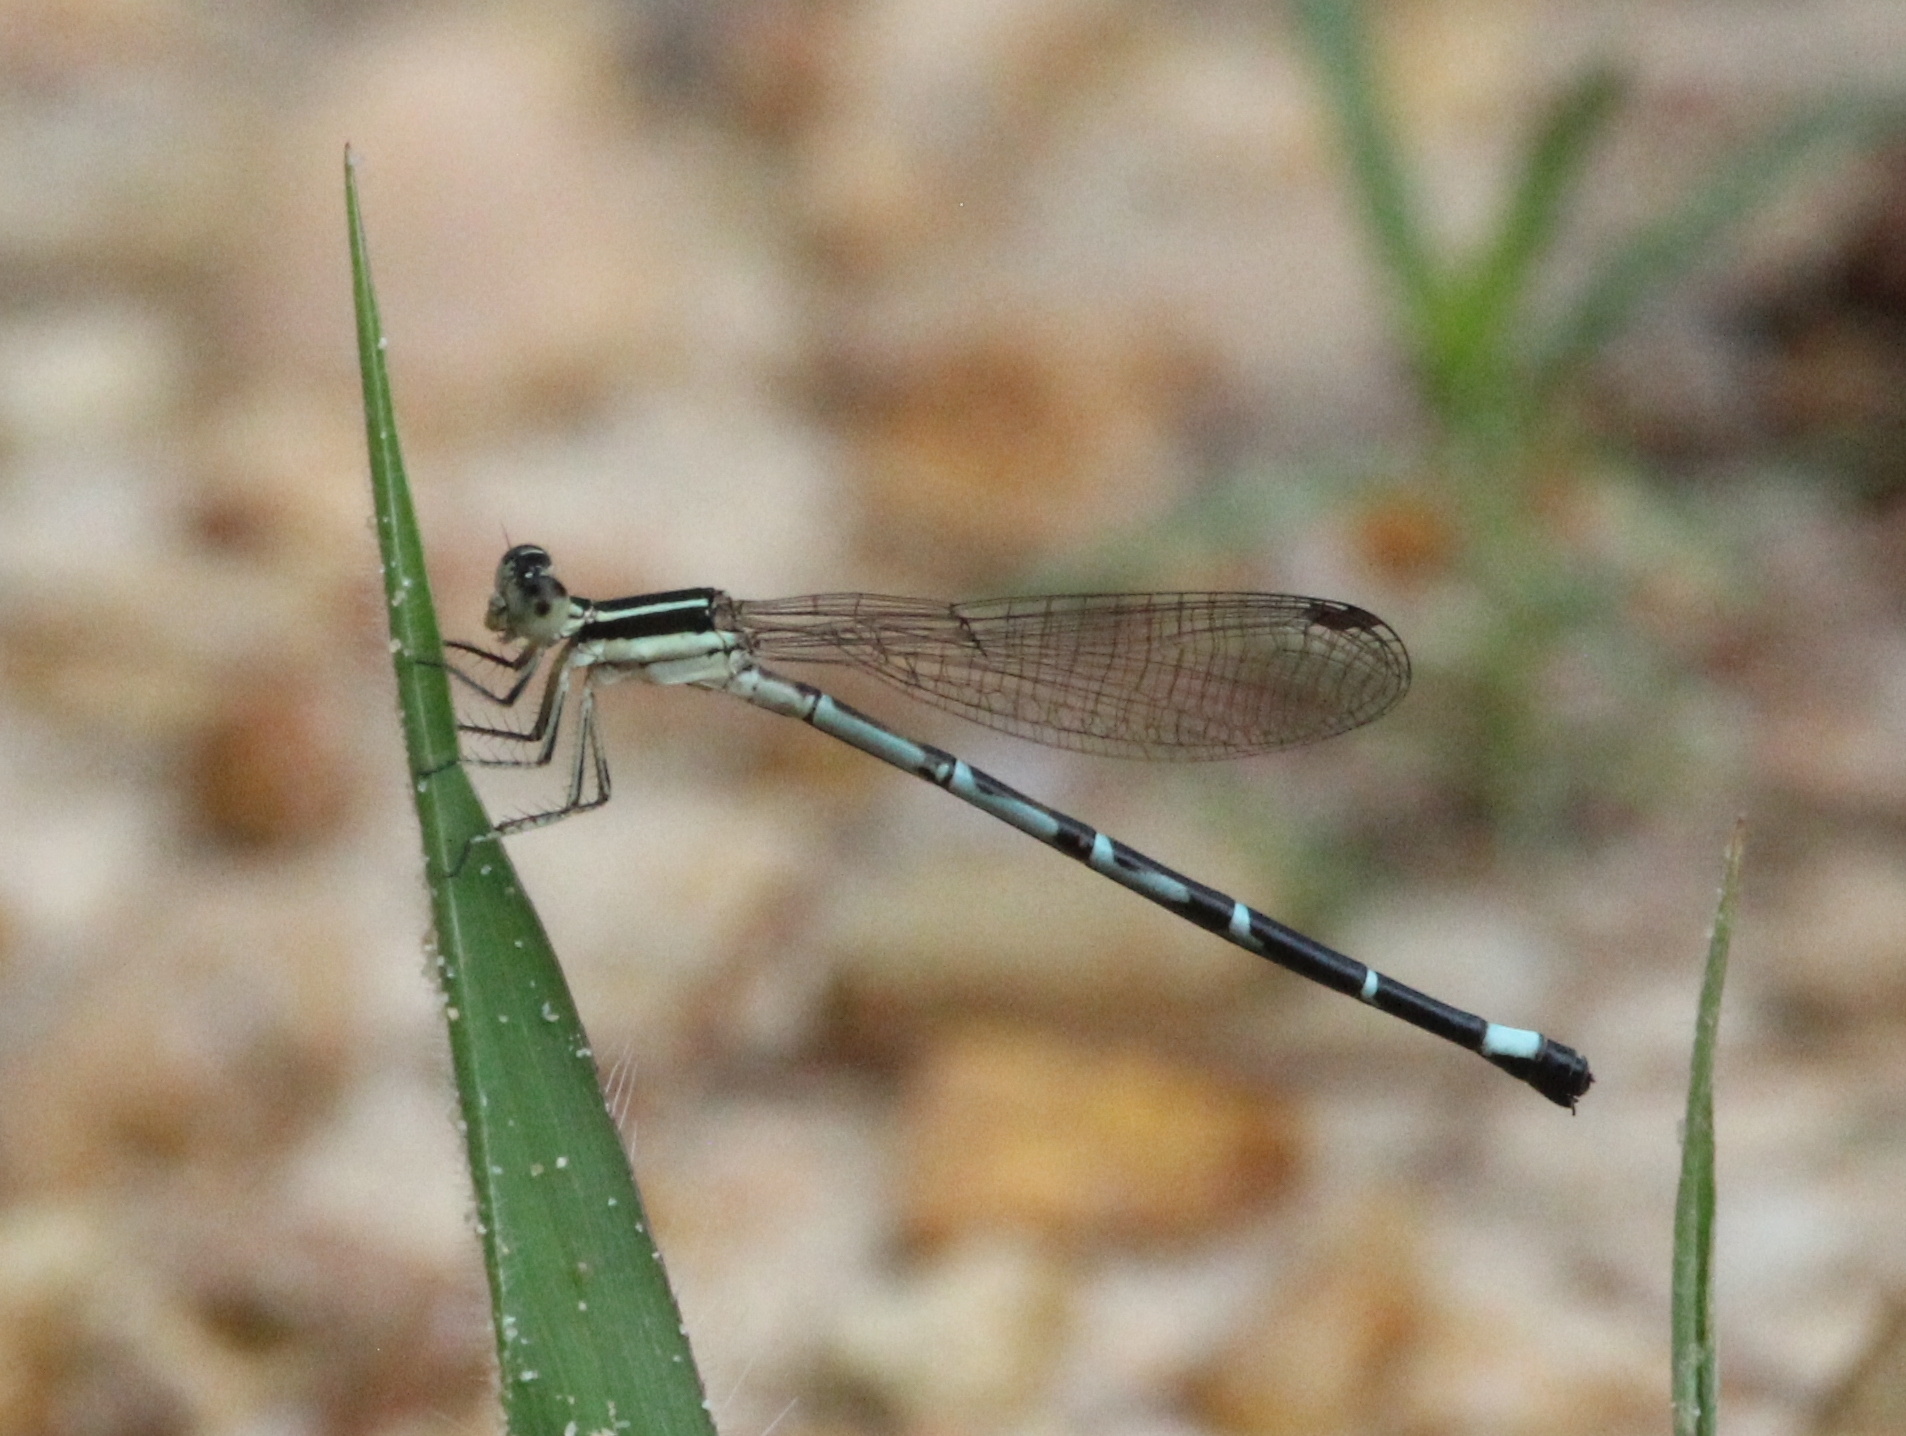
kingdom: Animalia
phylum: Arthropoda
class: Insecta
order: Odonata
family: Coenagrionidae
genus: Argia
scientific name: Argia bipunctulata
